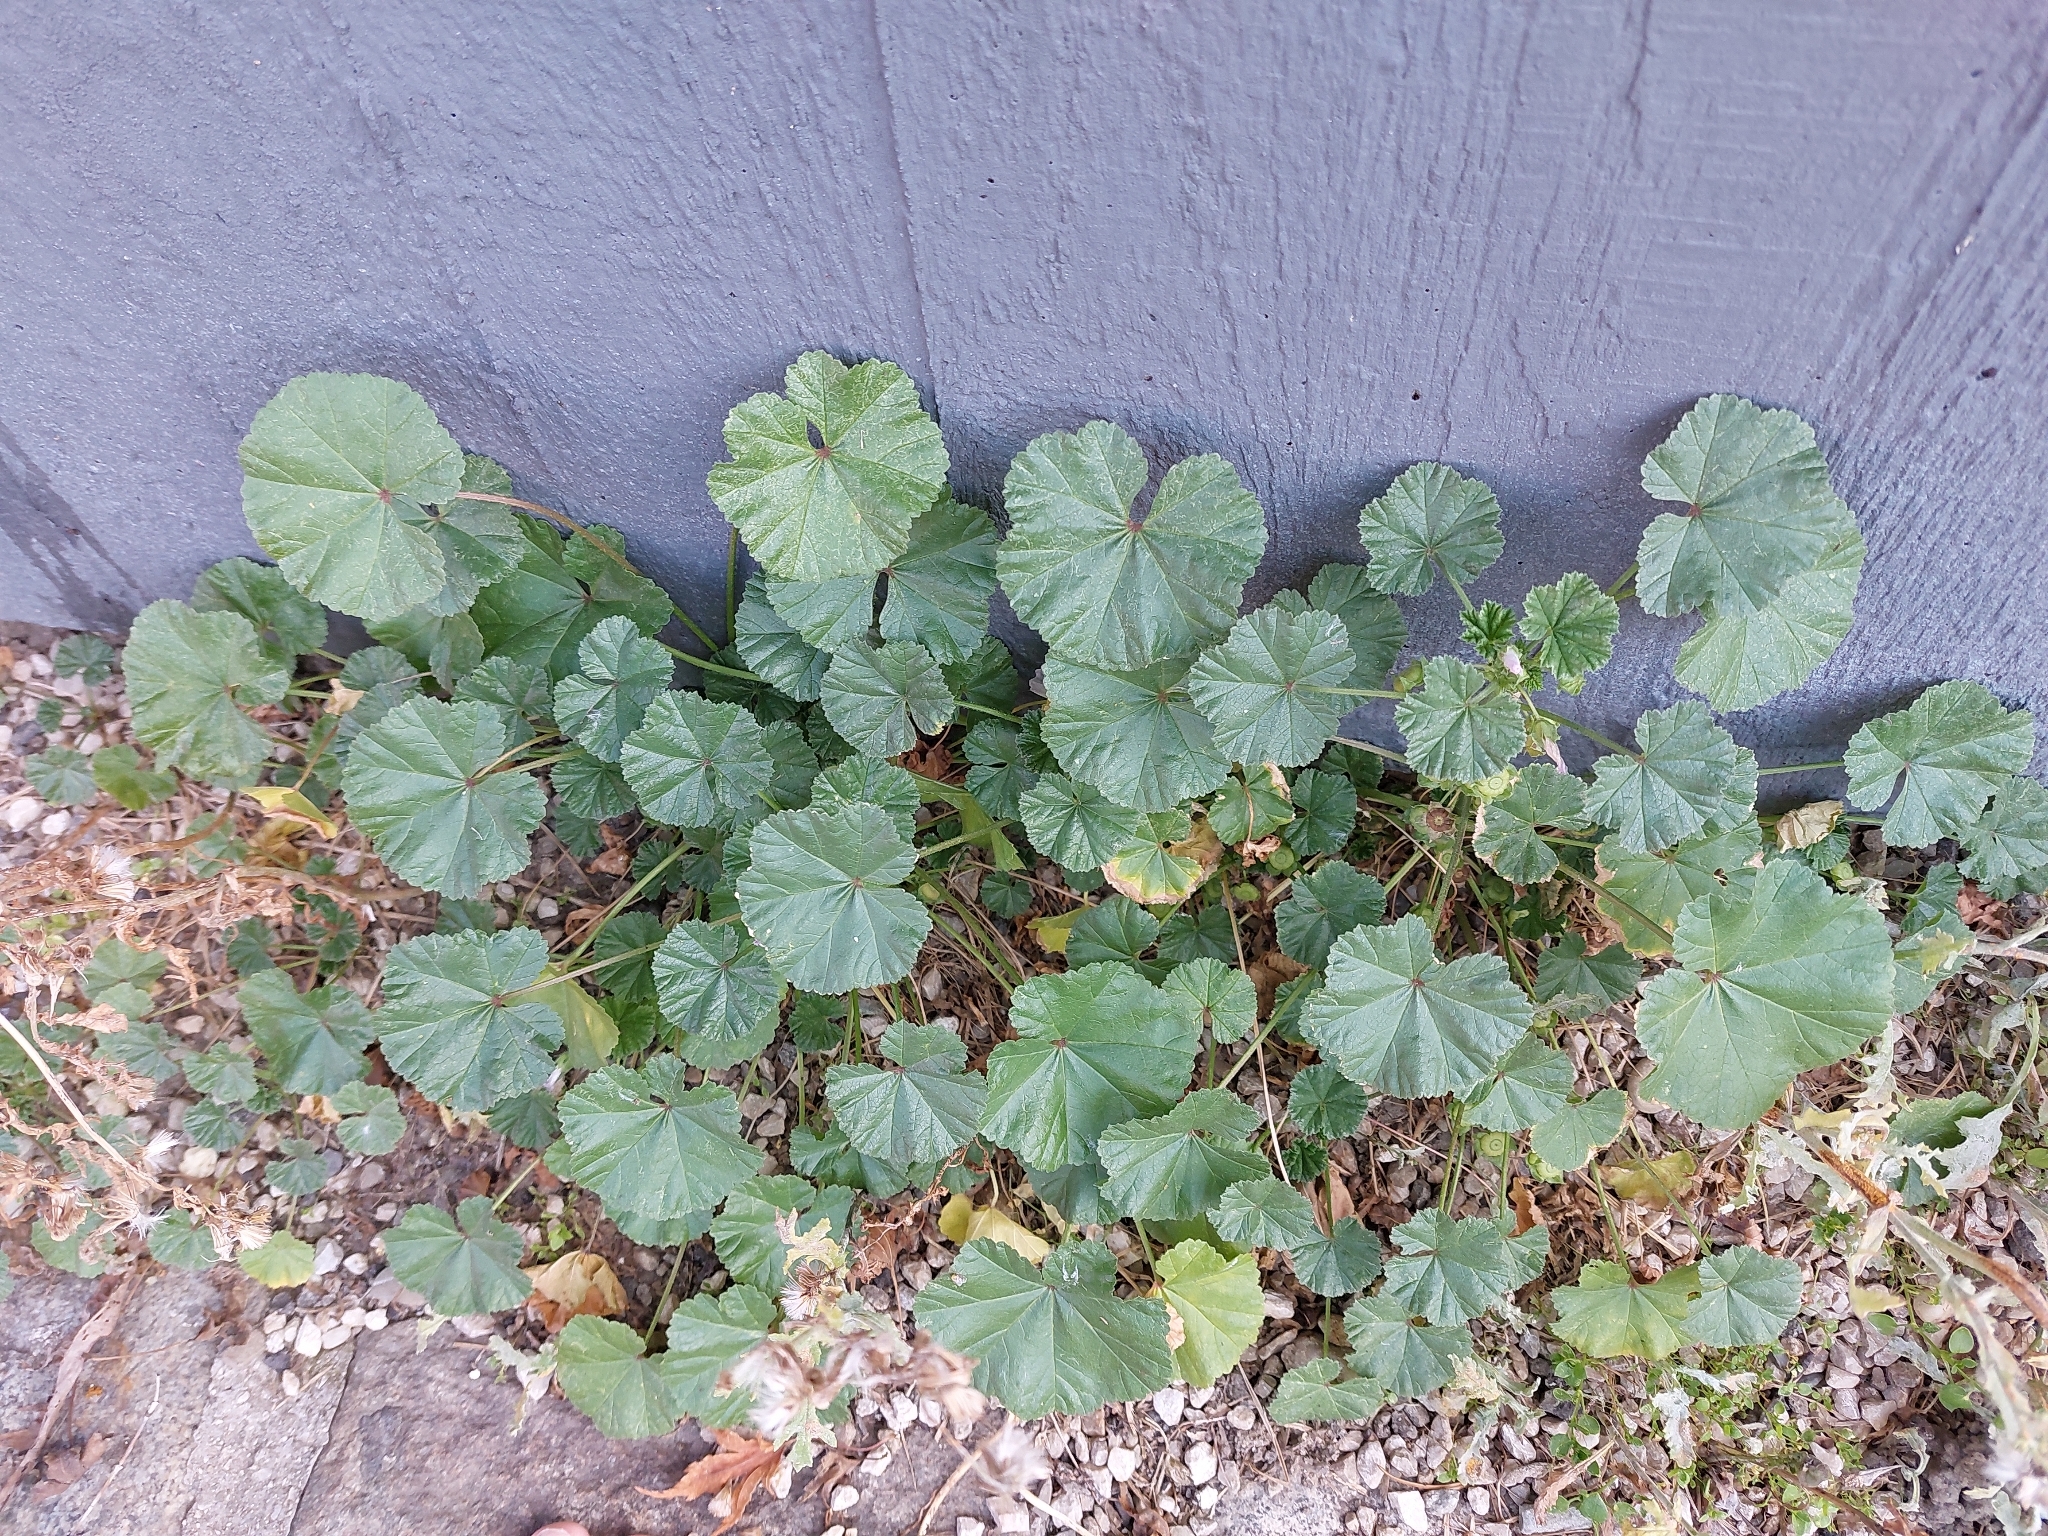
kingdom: Plantae
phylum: Tracheophyta
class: Magnoliopsida
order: Malvales
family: Malvaceae
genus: Malva
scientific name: Malva neglecta
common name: Common mallow
